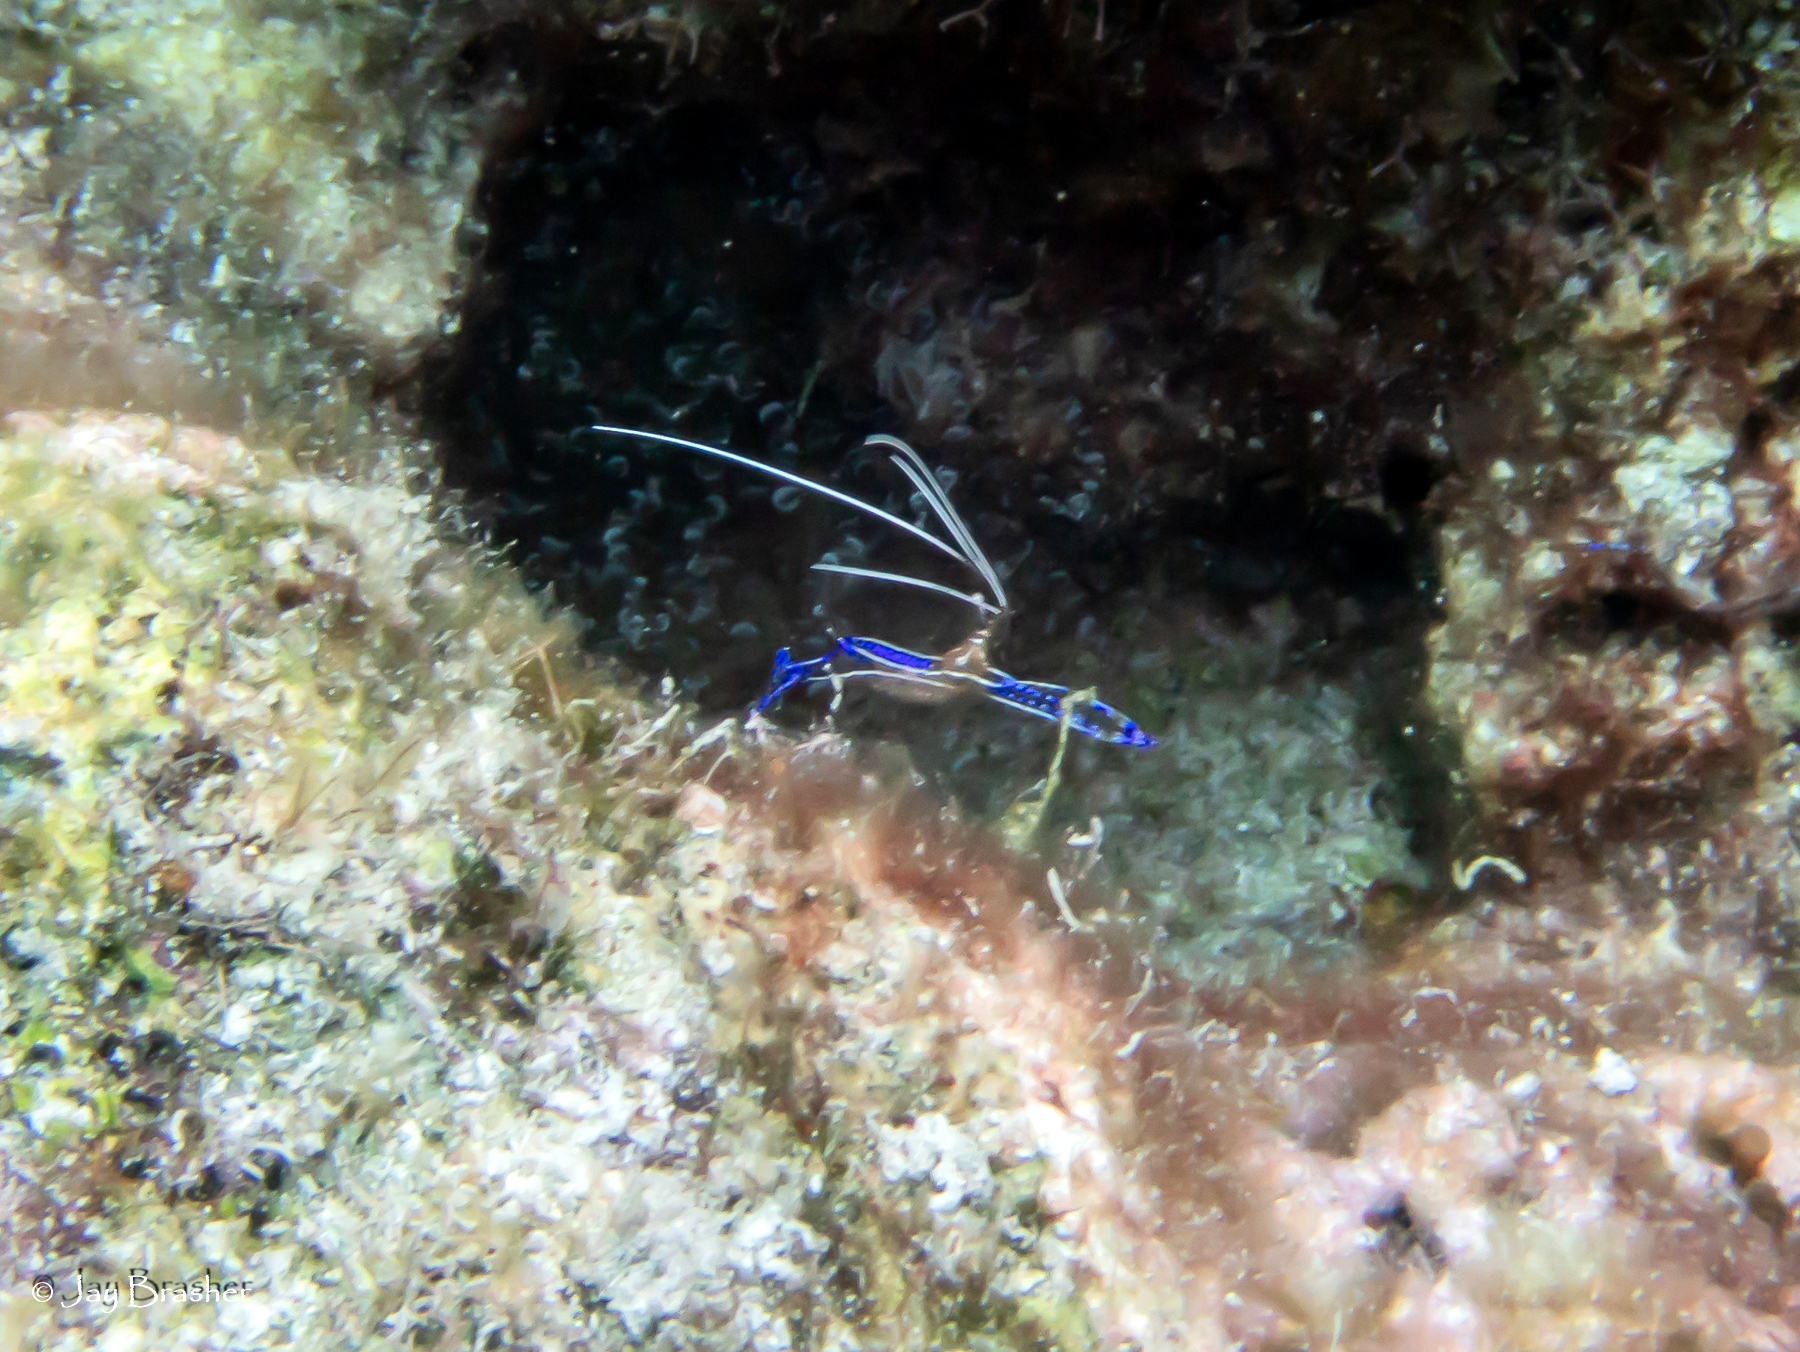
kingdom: Animalia
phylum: Arthropoda
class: Malacostraca
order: Decapoda
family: Palaemonidae
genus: Ancylomenes
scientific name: Ancylomenes pedersoni
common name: Pederson's cleaning shrimp
